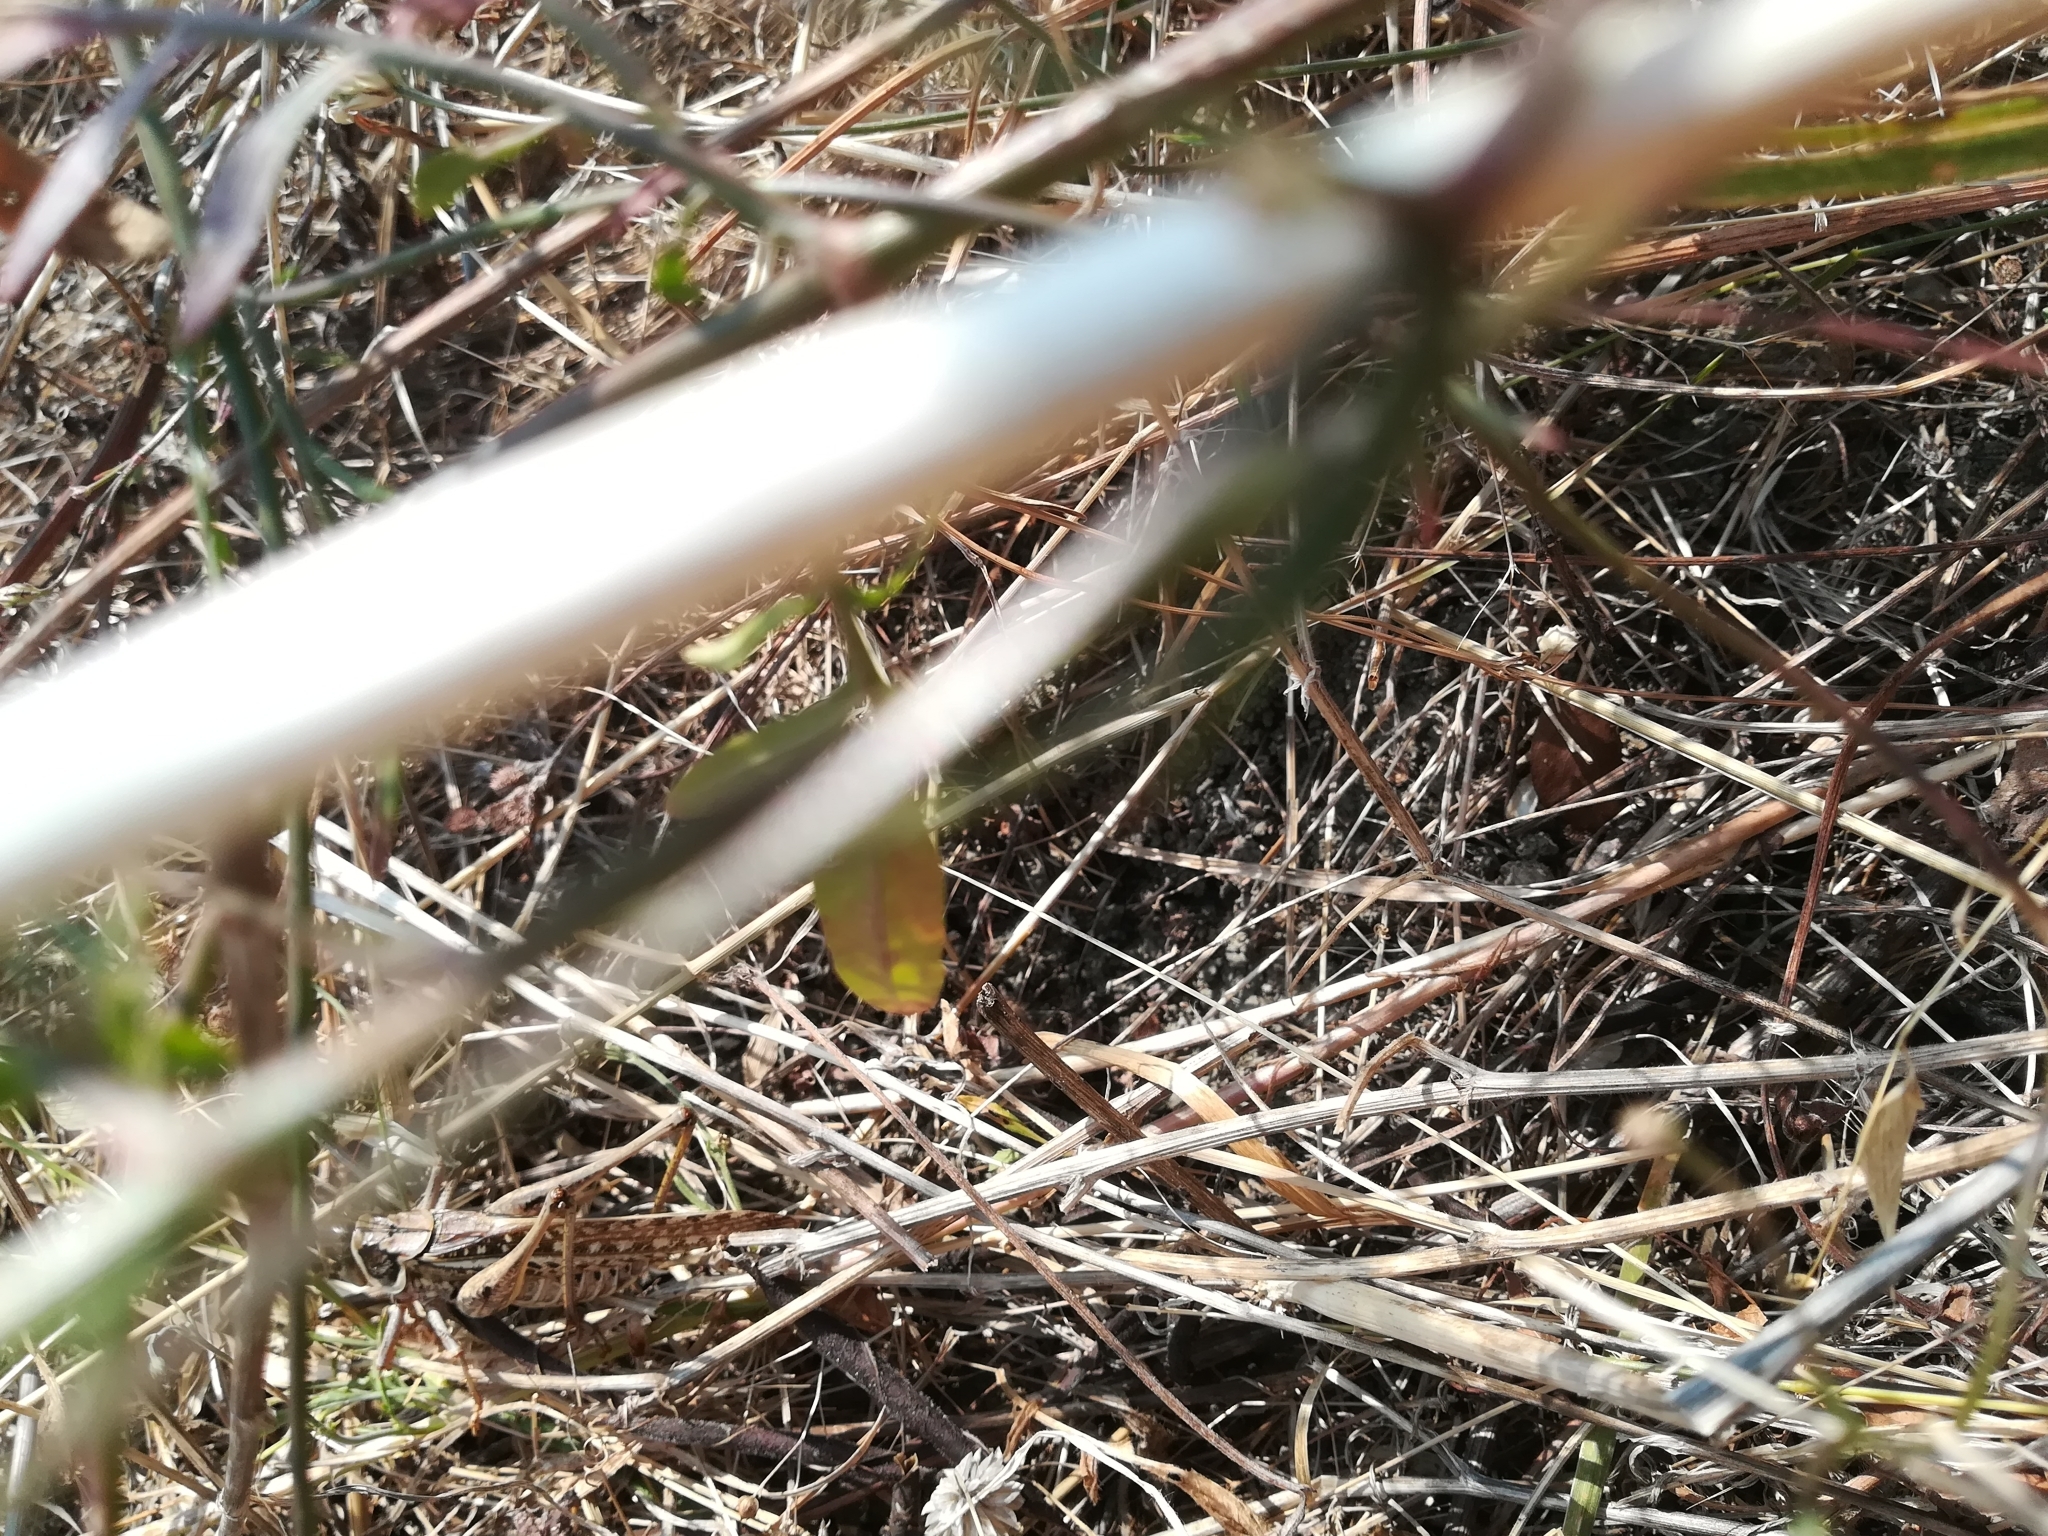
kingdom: Animalia
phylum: Arthropoda
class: Insecta
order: Orthoptera
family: Tettigoniidae
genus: Decticus
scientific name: Decticus albifrons
